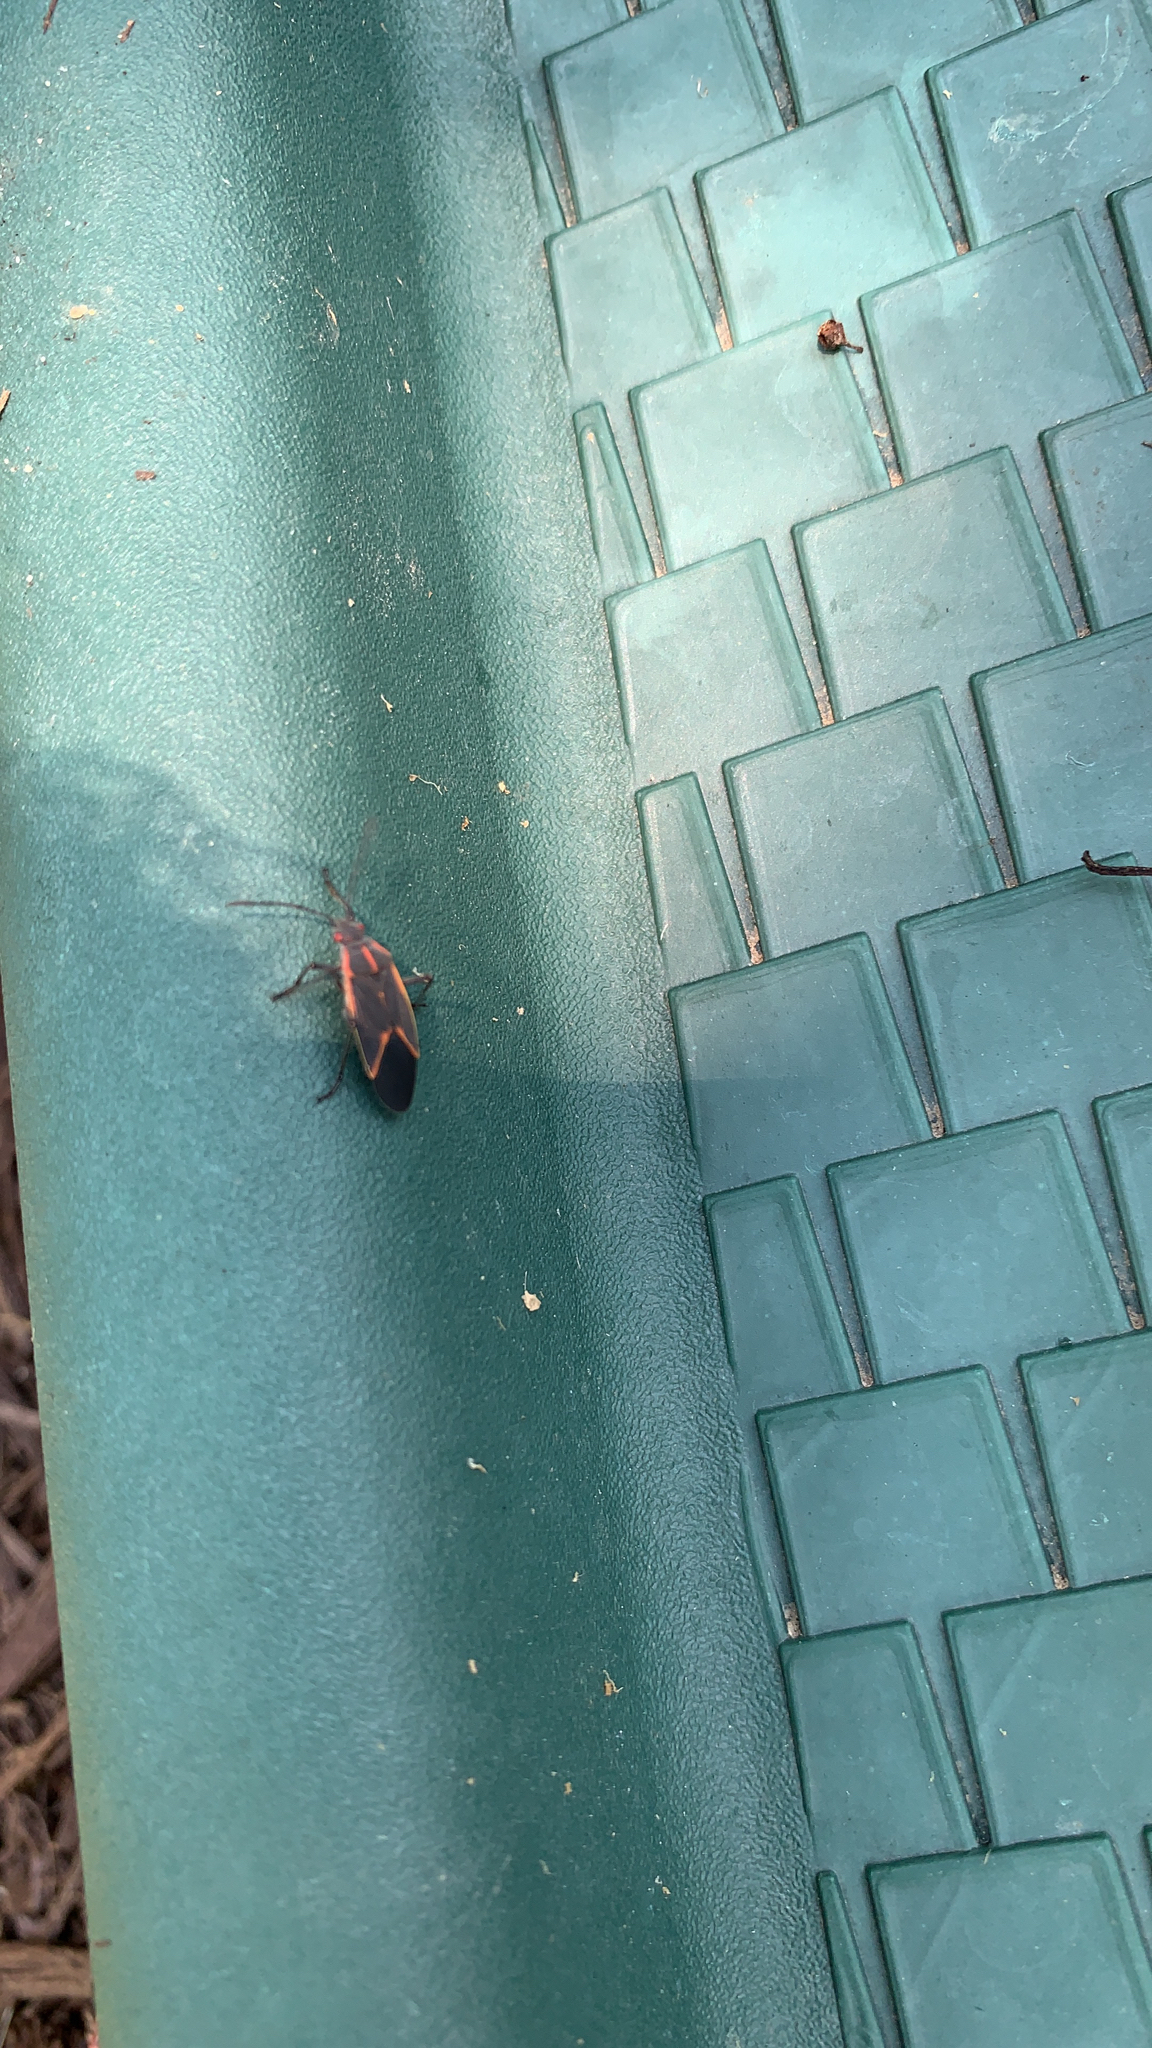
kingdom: Animalia
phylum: Arthropoda
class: Insecta
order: Hemiptera
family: Rhopalidae
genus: Boisea
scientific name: Boisea trivittata
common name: Boxelder bug
